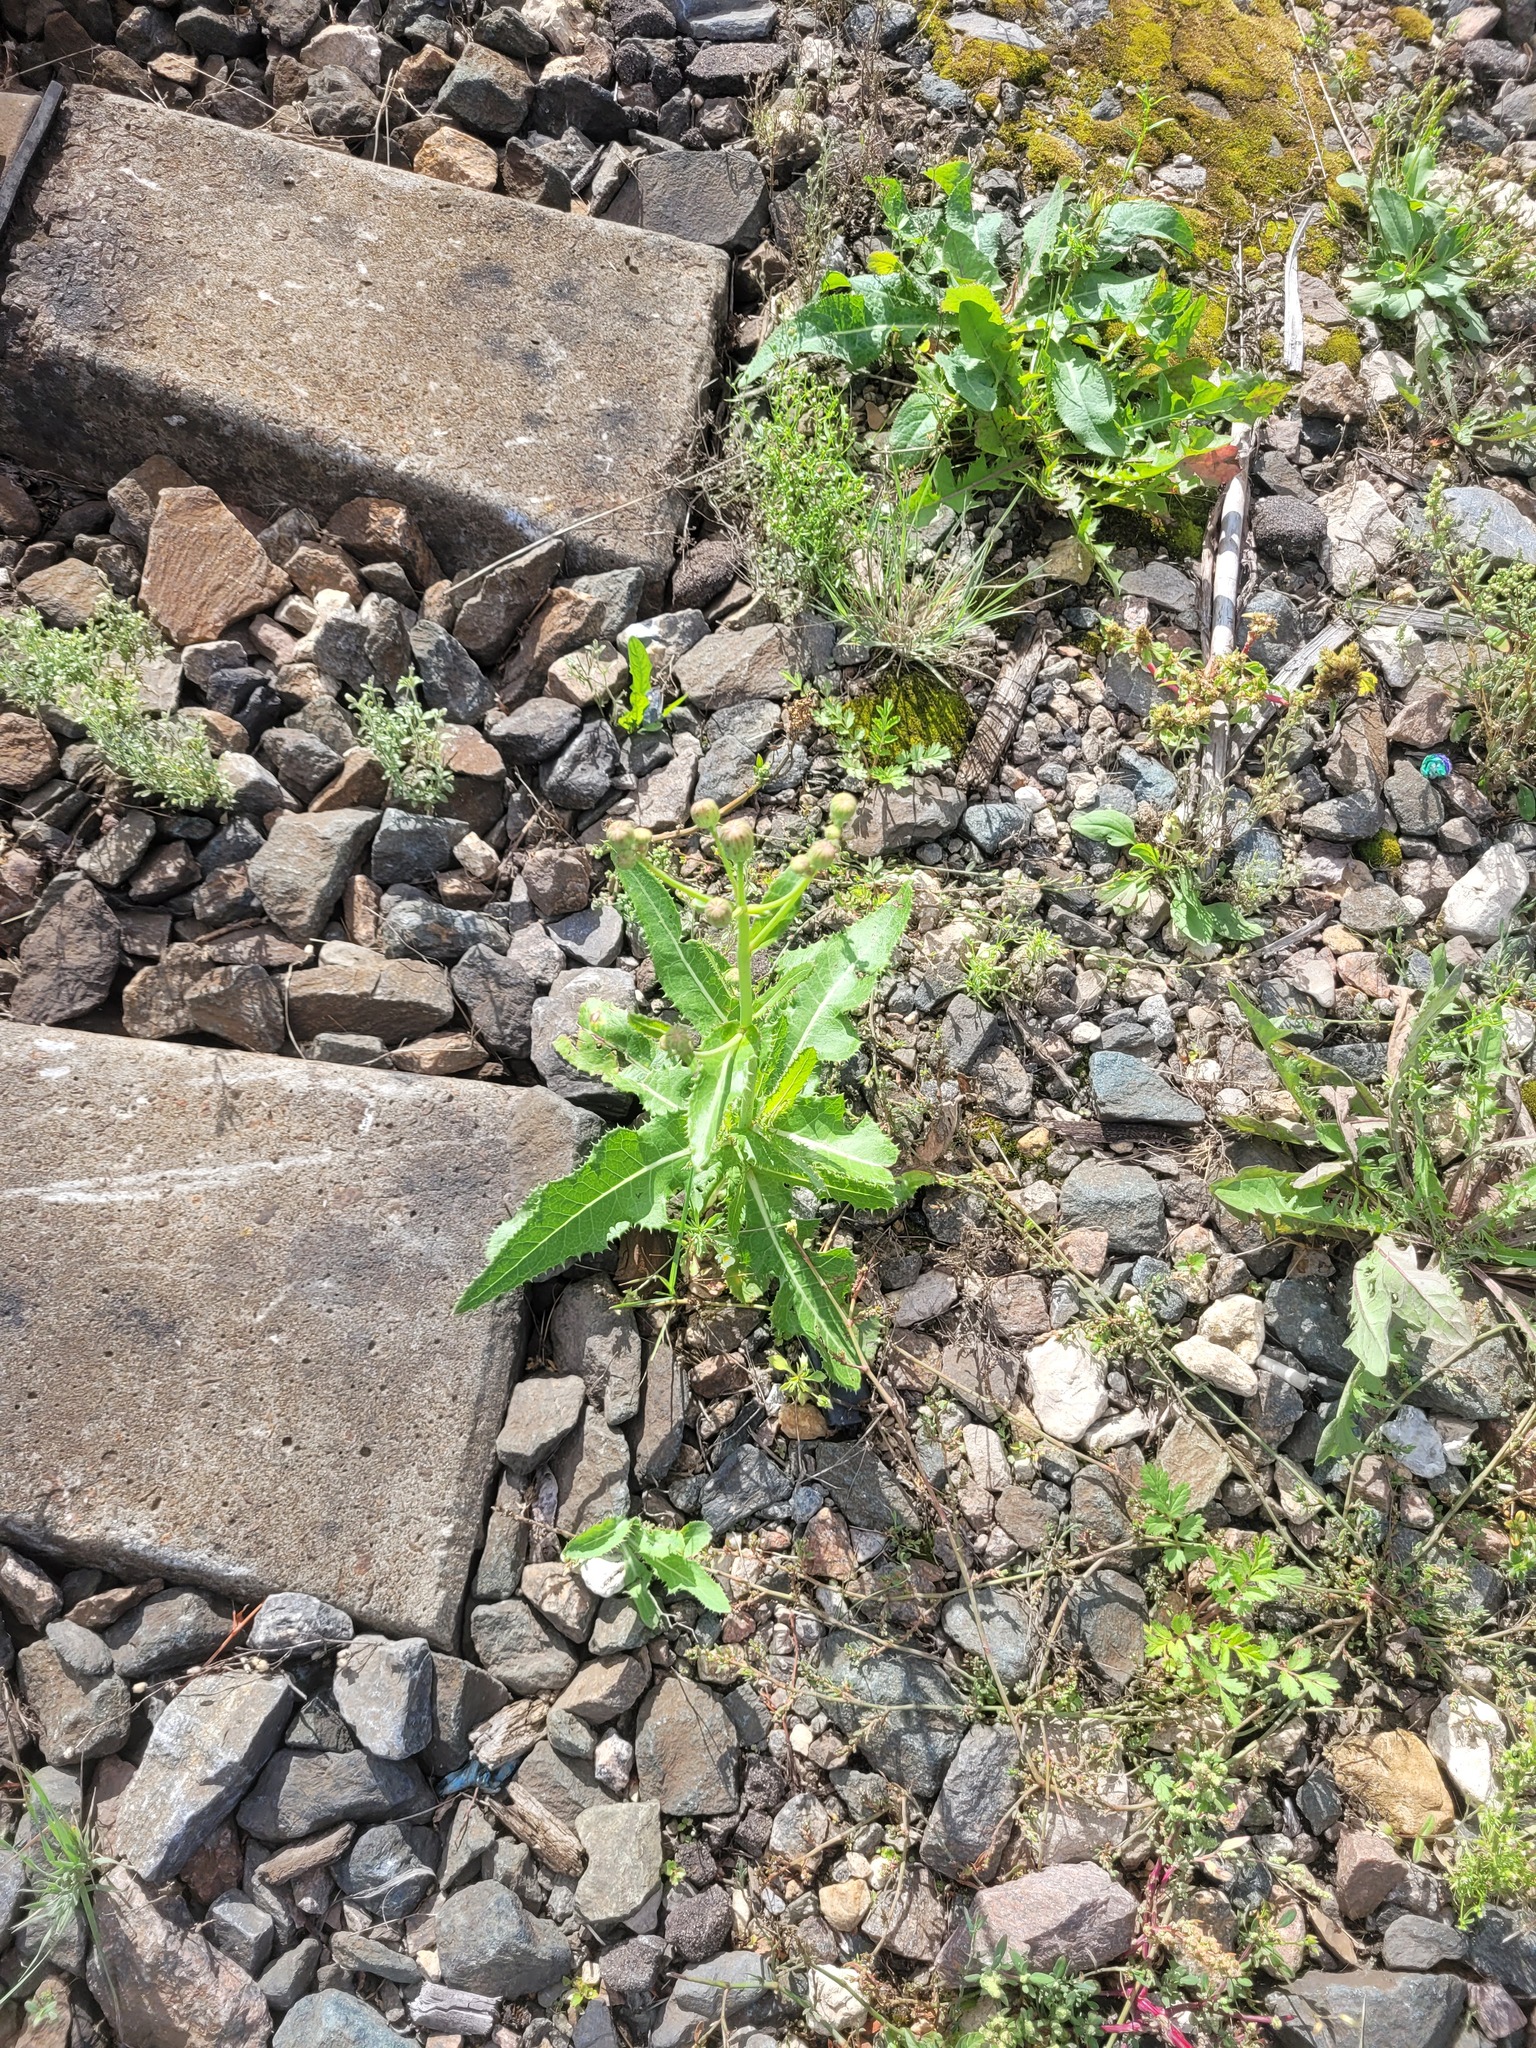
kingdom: Plantae
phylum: Tracheophyta
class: Magnoliopsida
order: Asterales
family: Asteraceae
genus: Sonchus
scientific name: Sonchus arvensis
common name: Perennial sow-thistle
